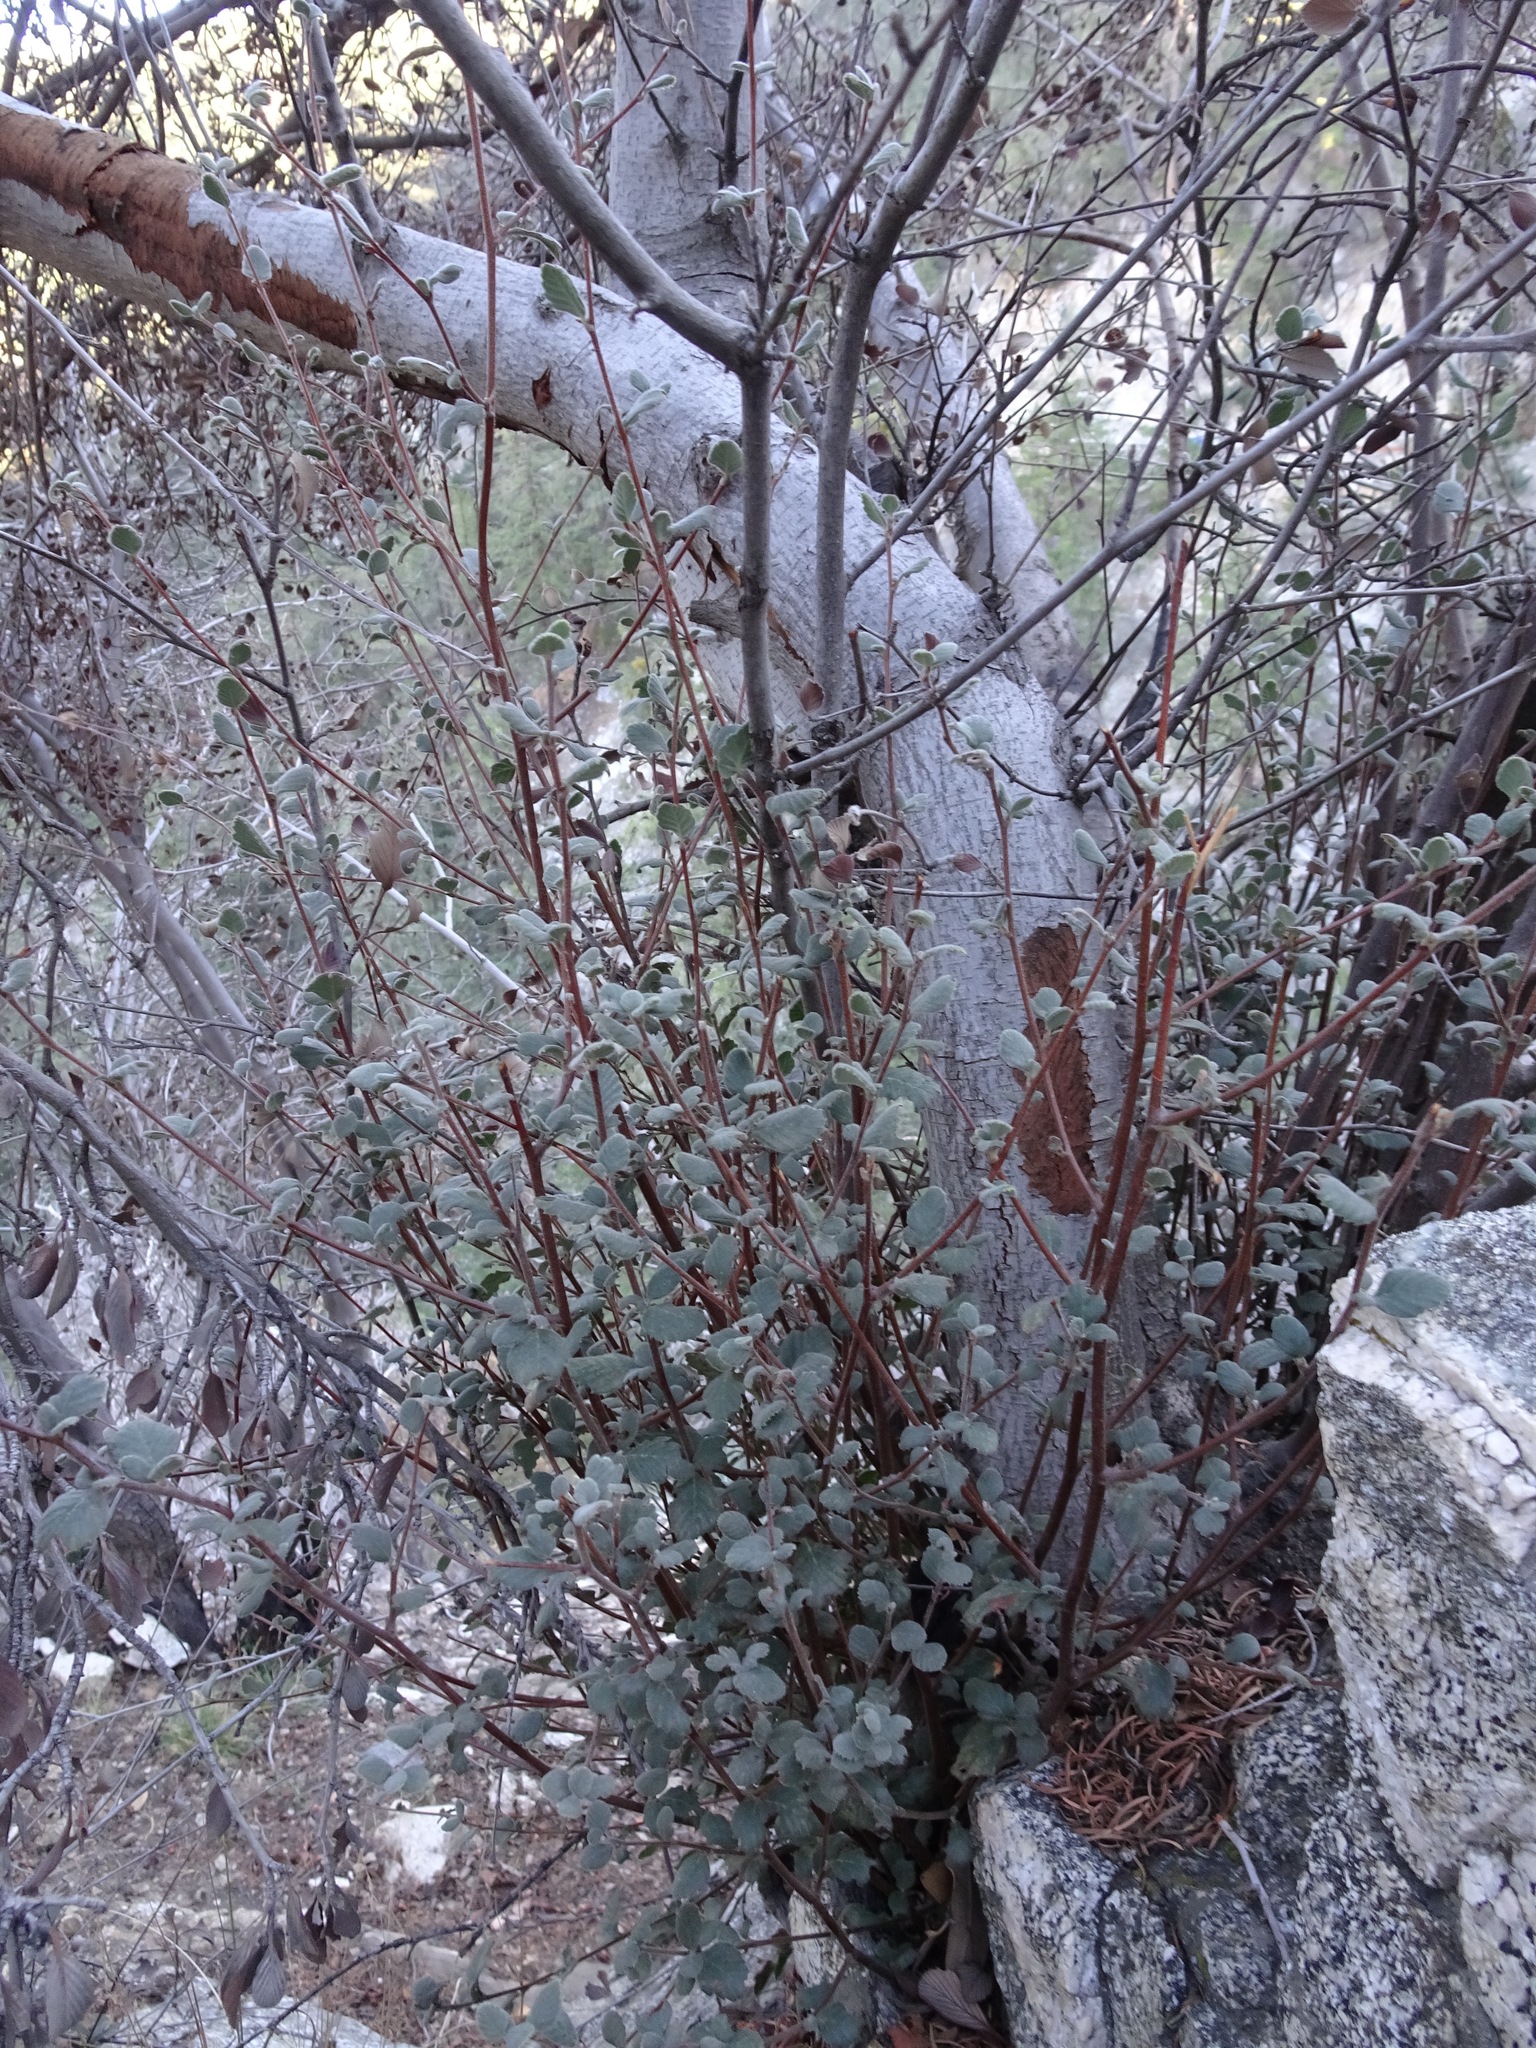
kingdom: Plantae
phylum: Tracheophyta
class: Magnoliopsida
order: Rosales
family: Rosaceae
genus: Cercocarpus
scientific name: Cercocarpus betuloides
